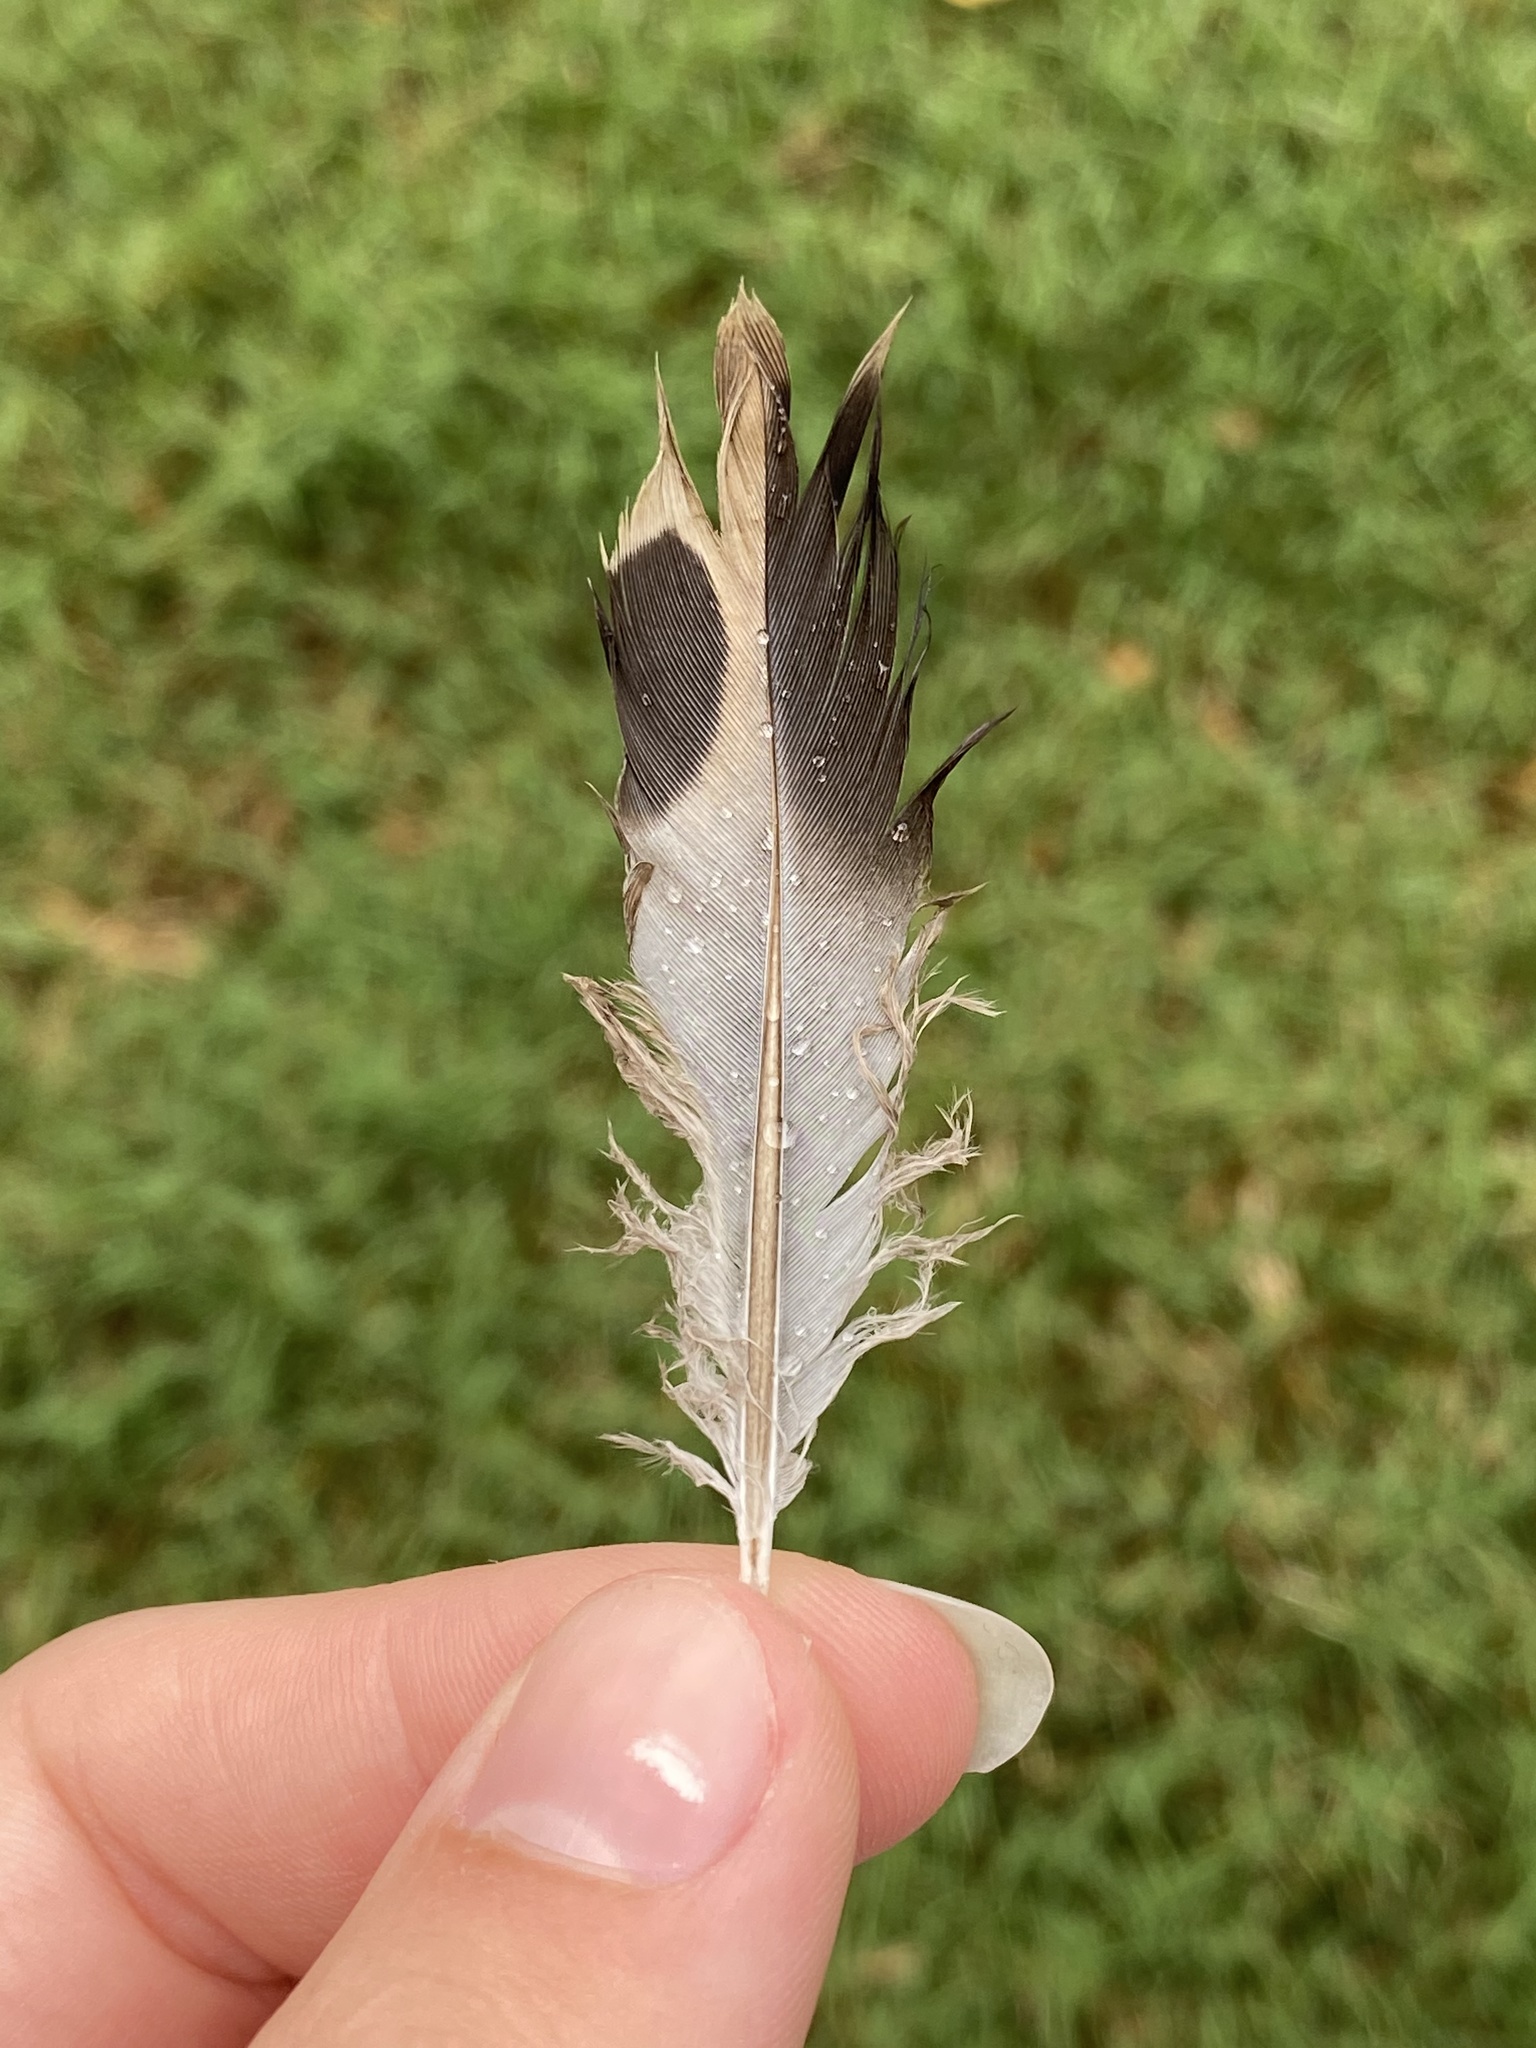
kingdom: Animalia
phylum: Chordata
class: Aves
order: Columbiformes
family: Columbidae
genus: Zenaida
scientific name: Zenaida macroura
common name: Mourning dove
